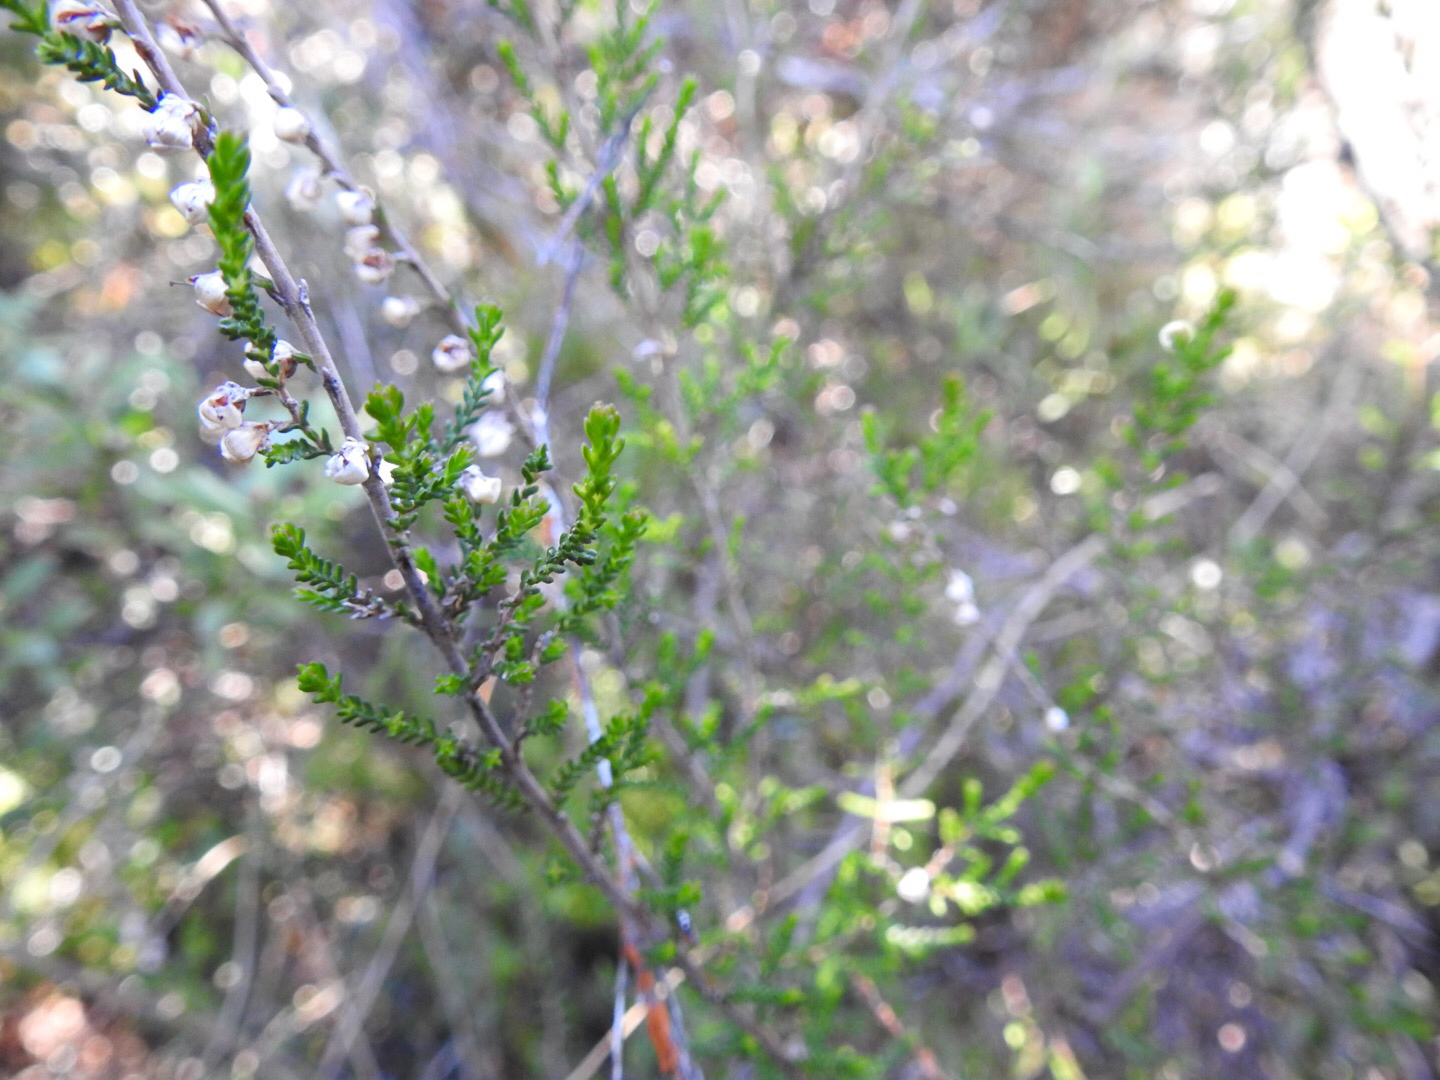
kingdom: Plantae
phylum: Tracheophyta
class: Magnoliopsida
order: Ericales
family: Ericaceae
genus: Calluna
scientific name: Calluna vulgaris
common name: Heather
